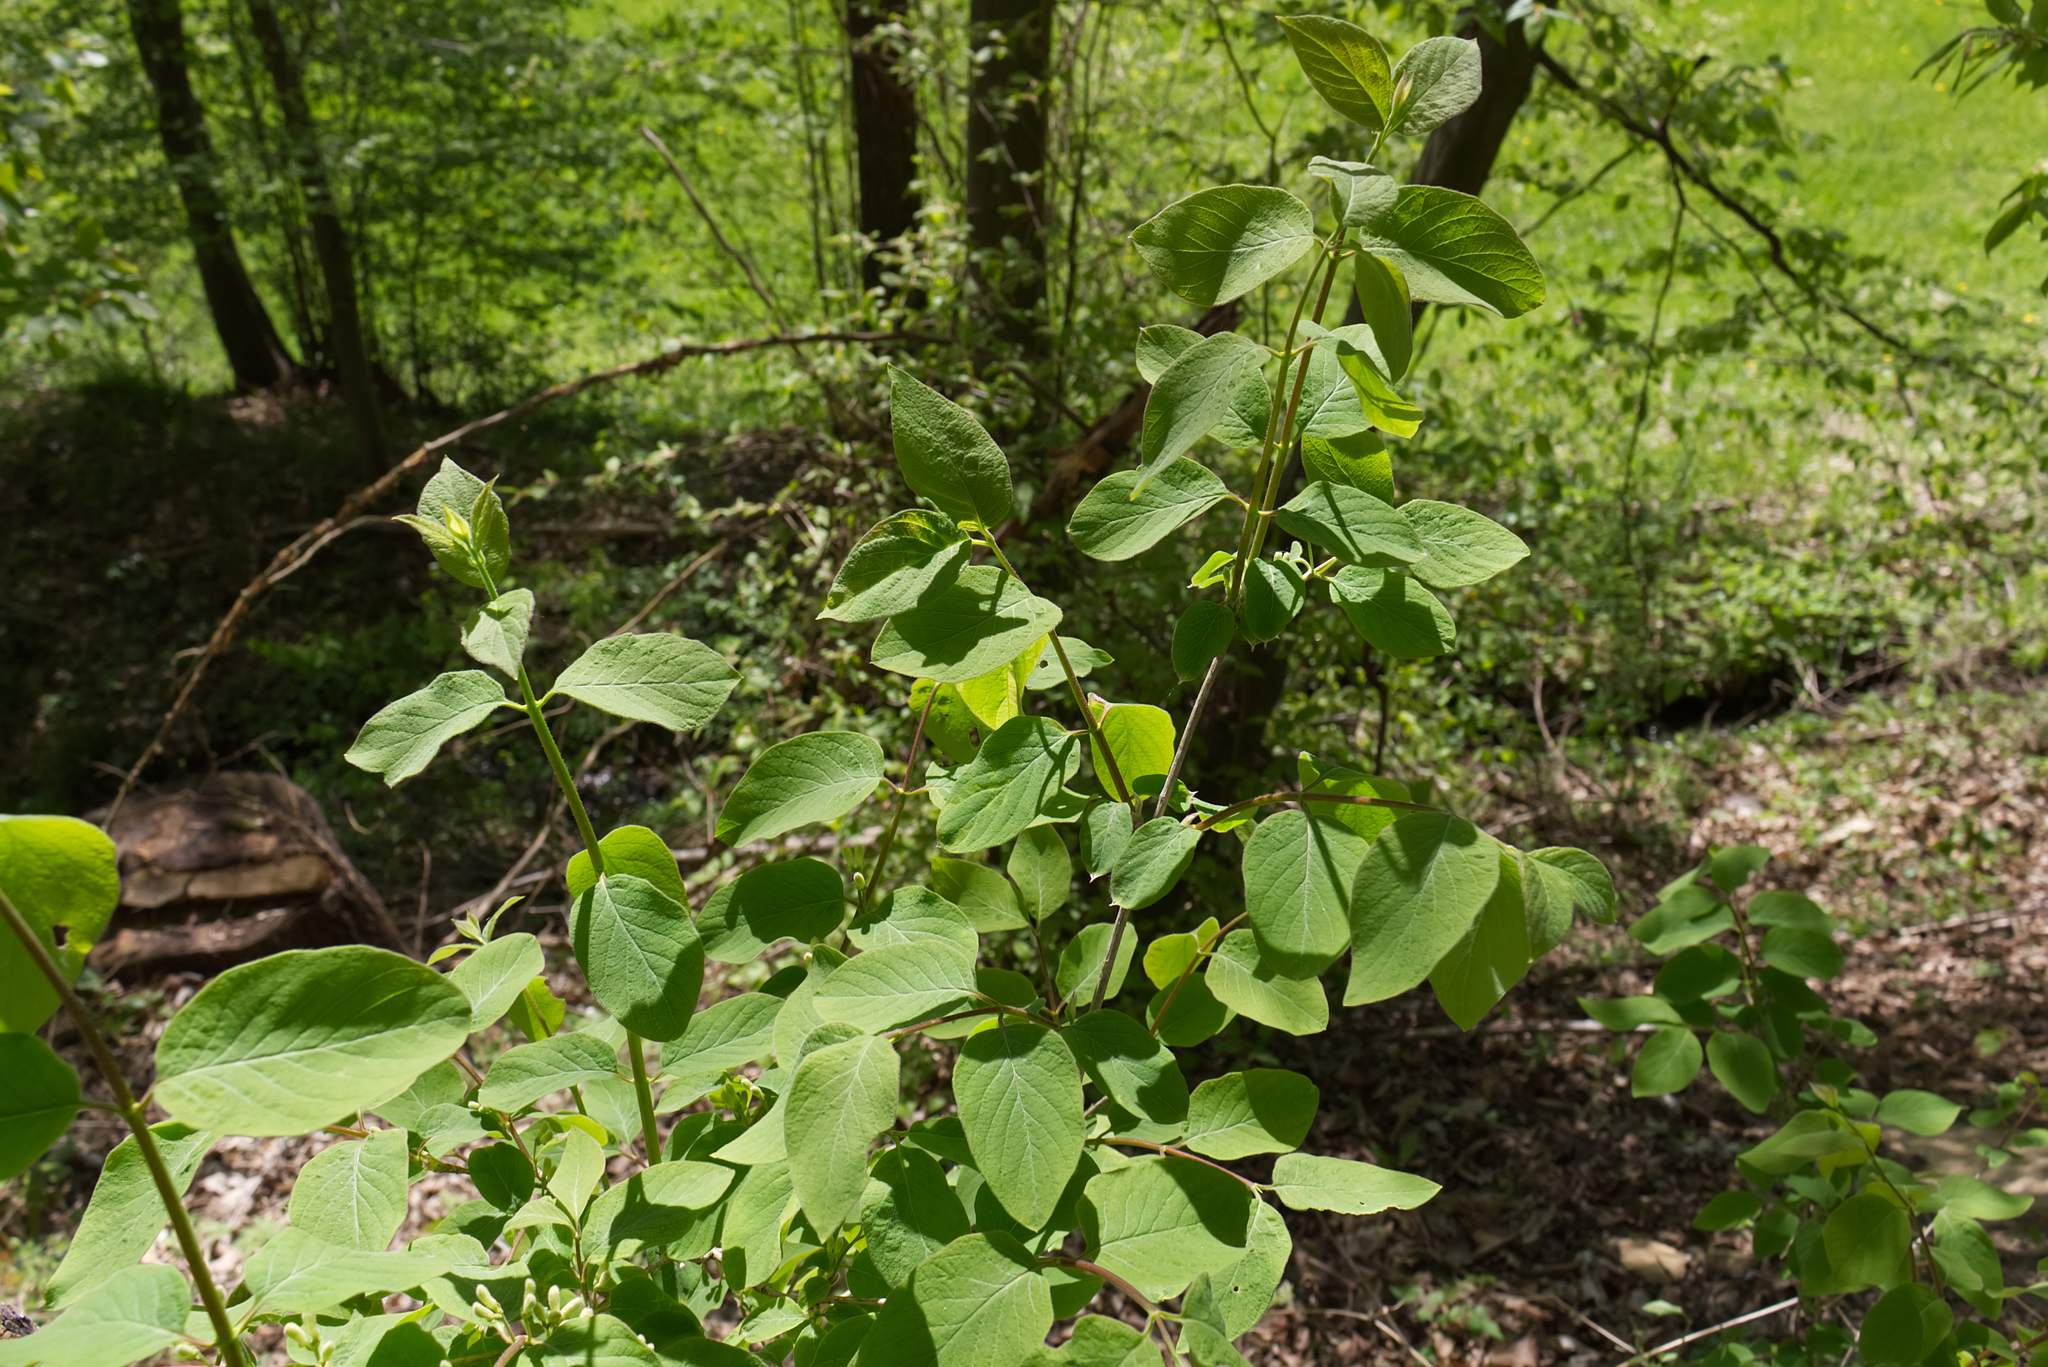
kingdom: Plantae
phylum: Tracheophyta
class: Magnoliopsida
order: Dipsacales
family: Caprifoliaceae
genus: Lonicera
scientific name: Lonicera xylosteum
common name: Fly honeysuckle
